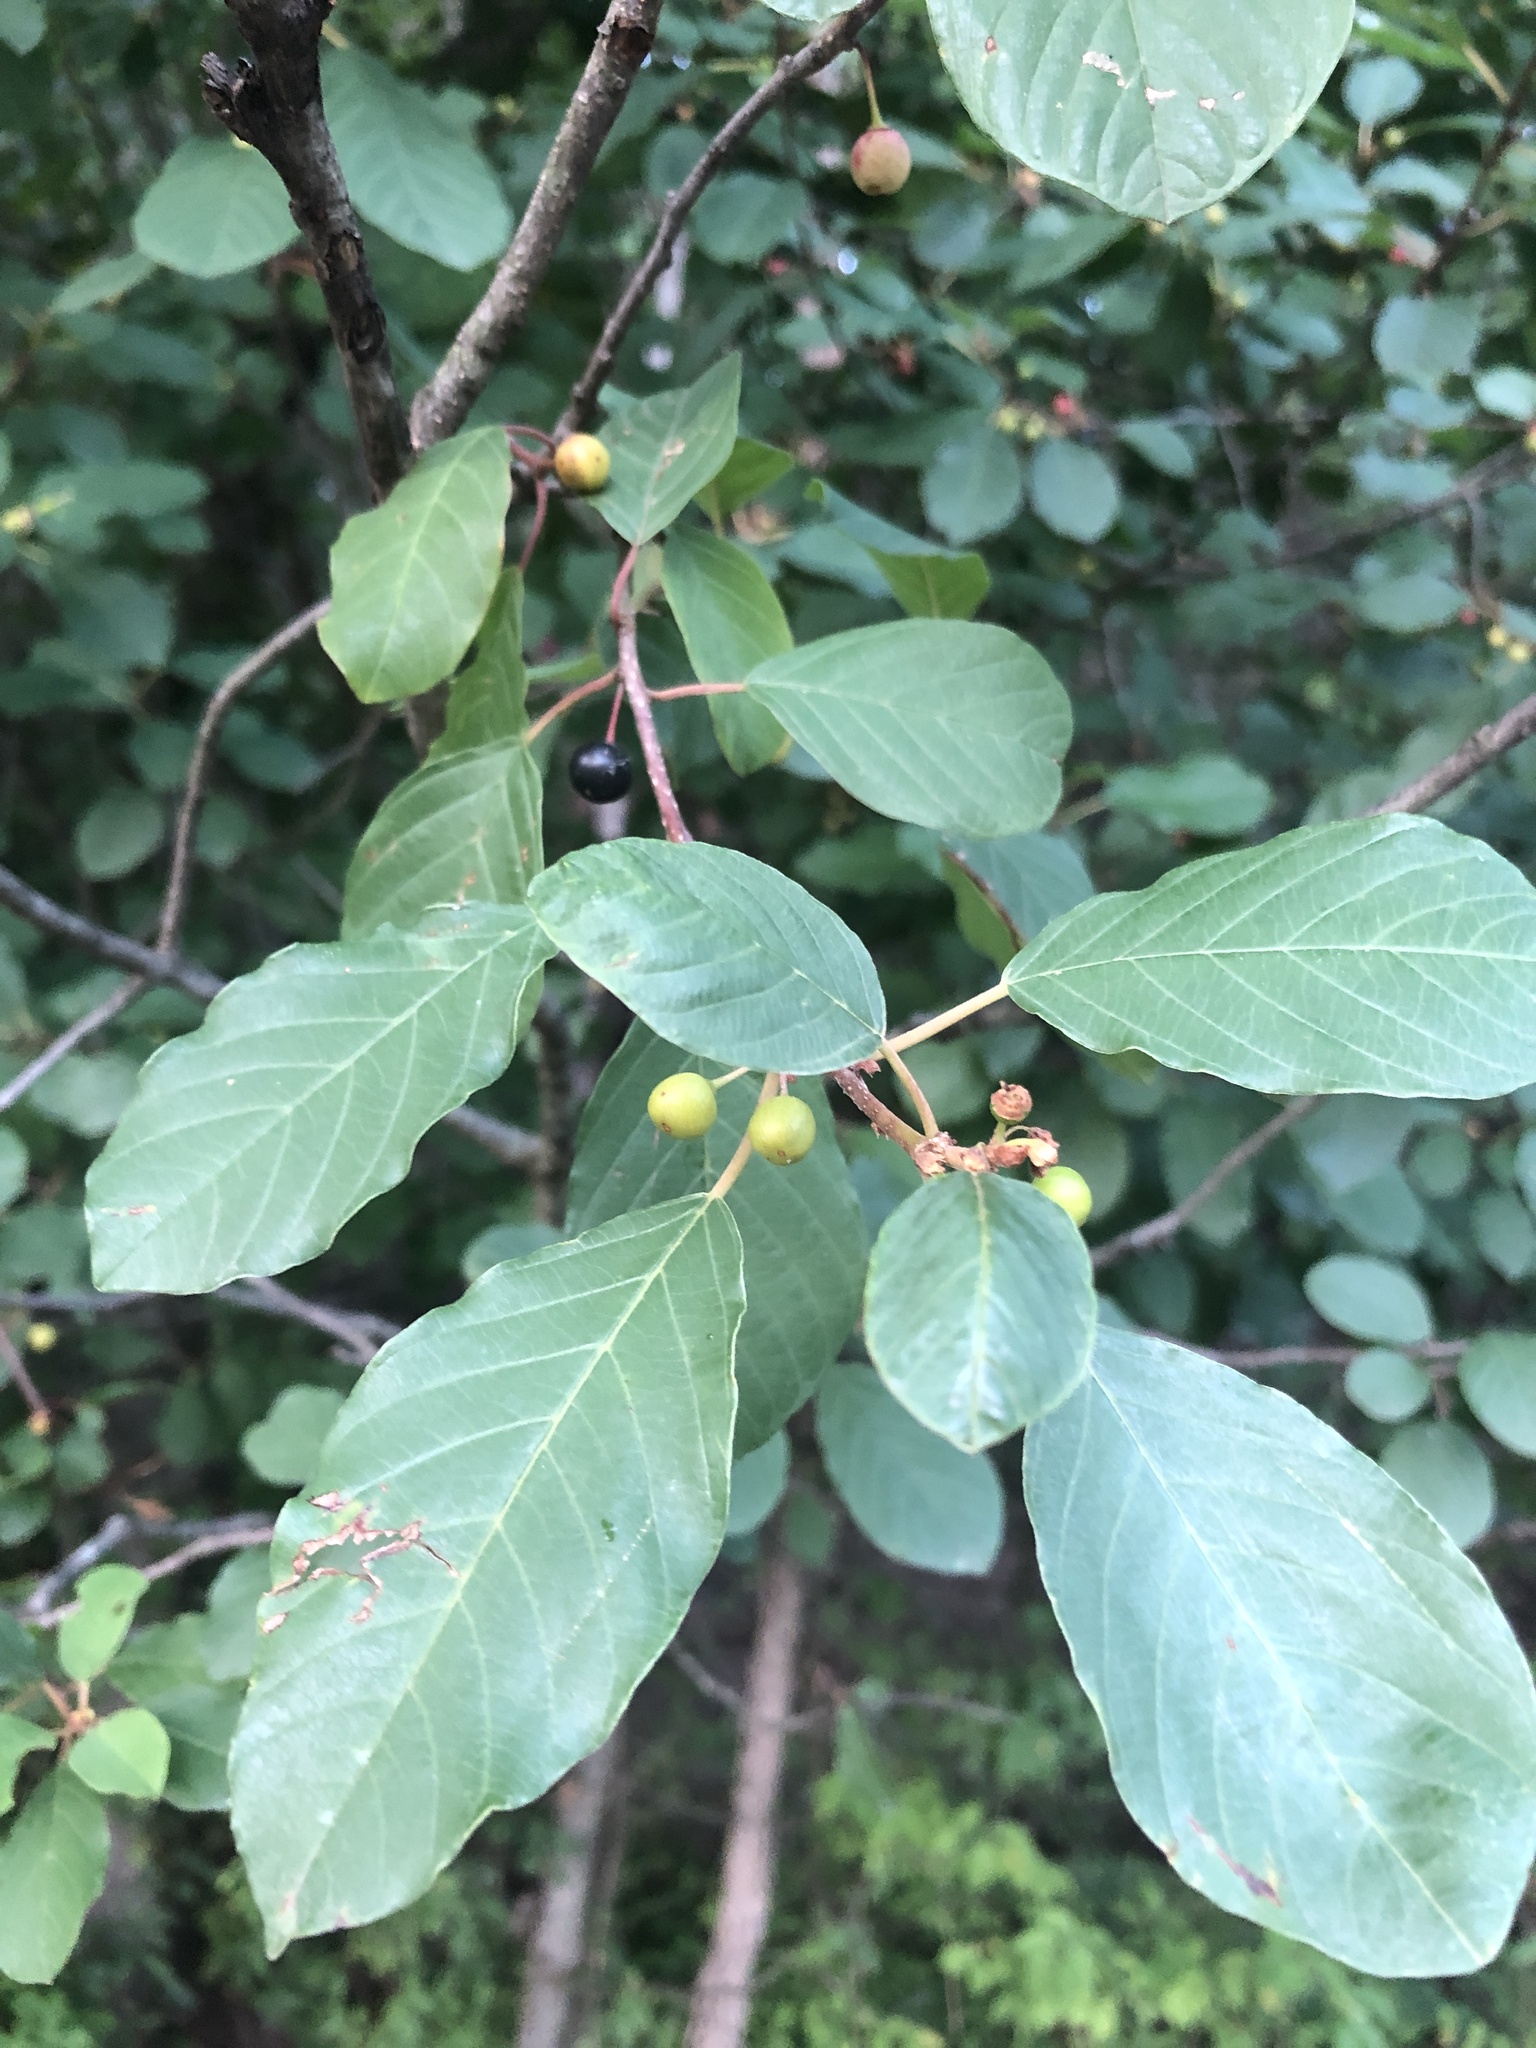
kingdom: Plantae
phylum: Tracheophyta
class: Magnoliopsida
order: Rosales
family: Rhamnaceae
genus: Frangula
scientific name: Frangula alnus
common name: Alder buckthorn
